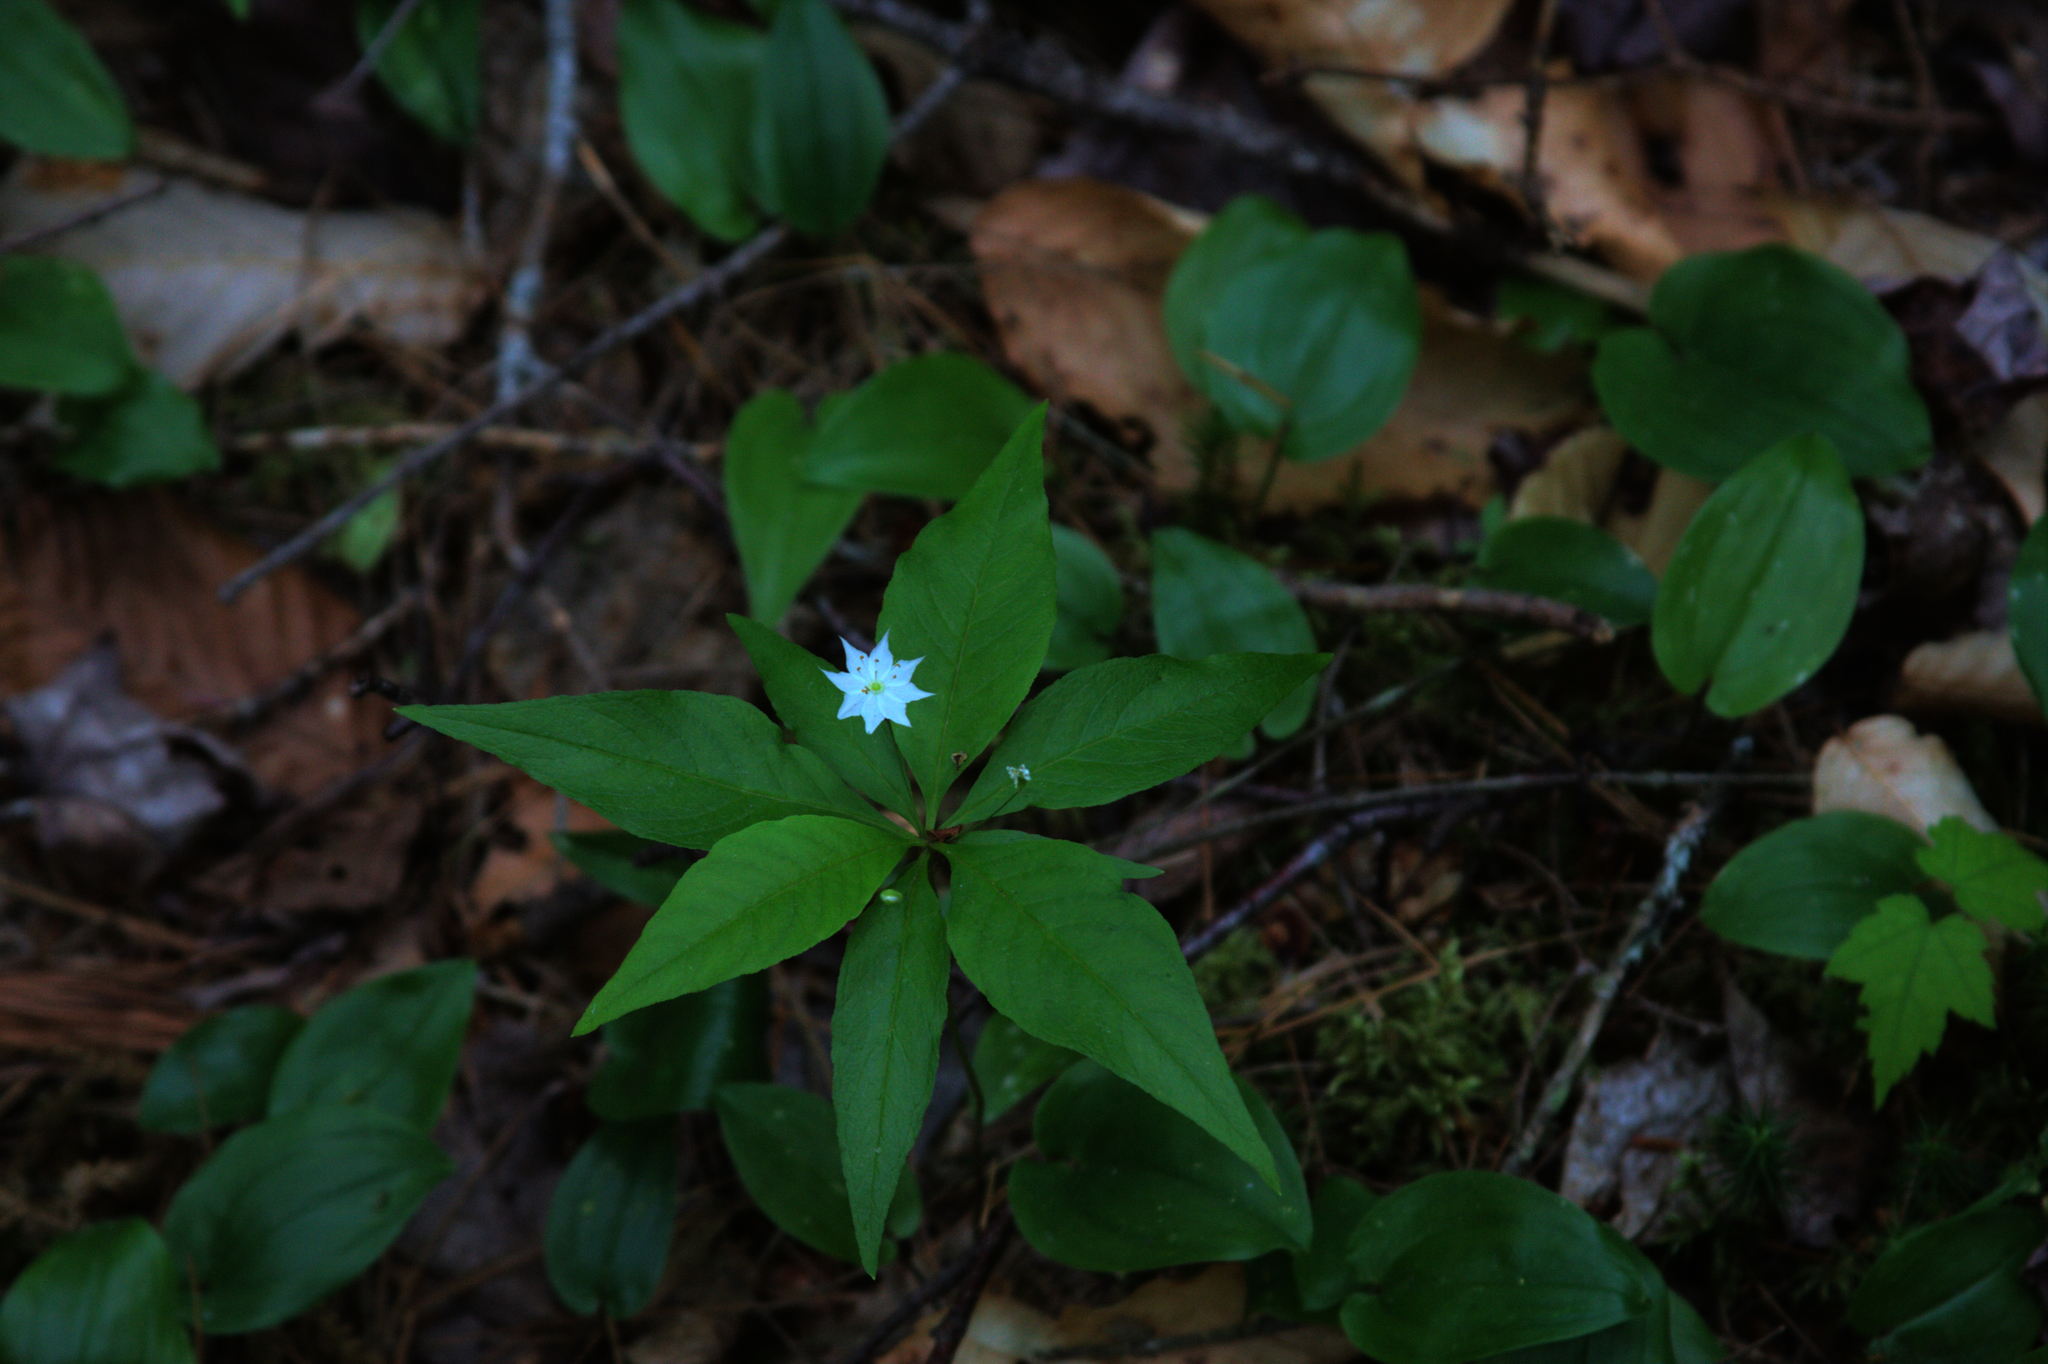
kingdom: Plantae
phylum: Tracheophyta
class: Magnoliopsida
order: Ericales
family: Primulaceae
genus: Lysimachia
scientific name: Lysimachia borealis
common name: American starflower
